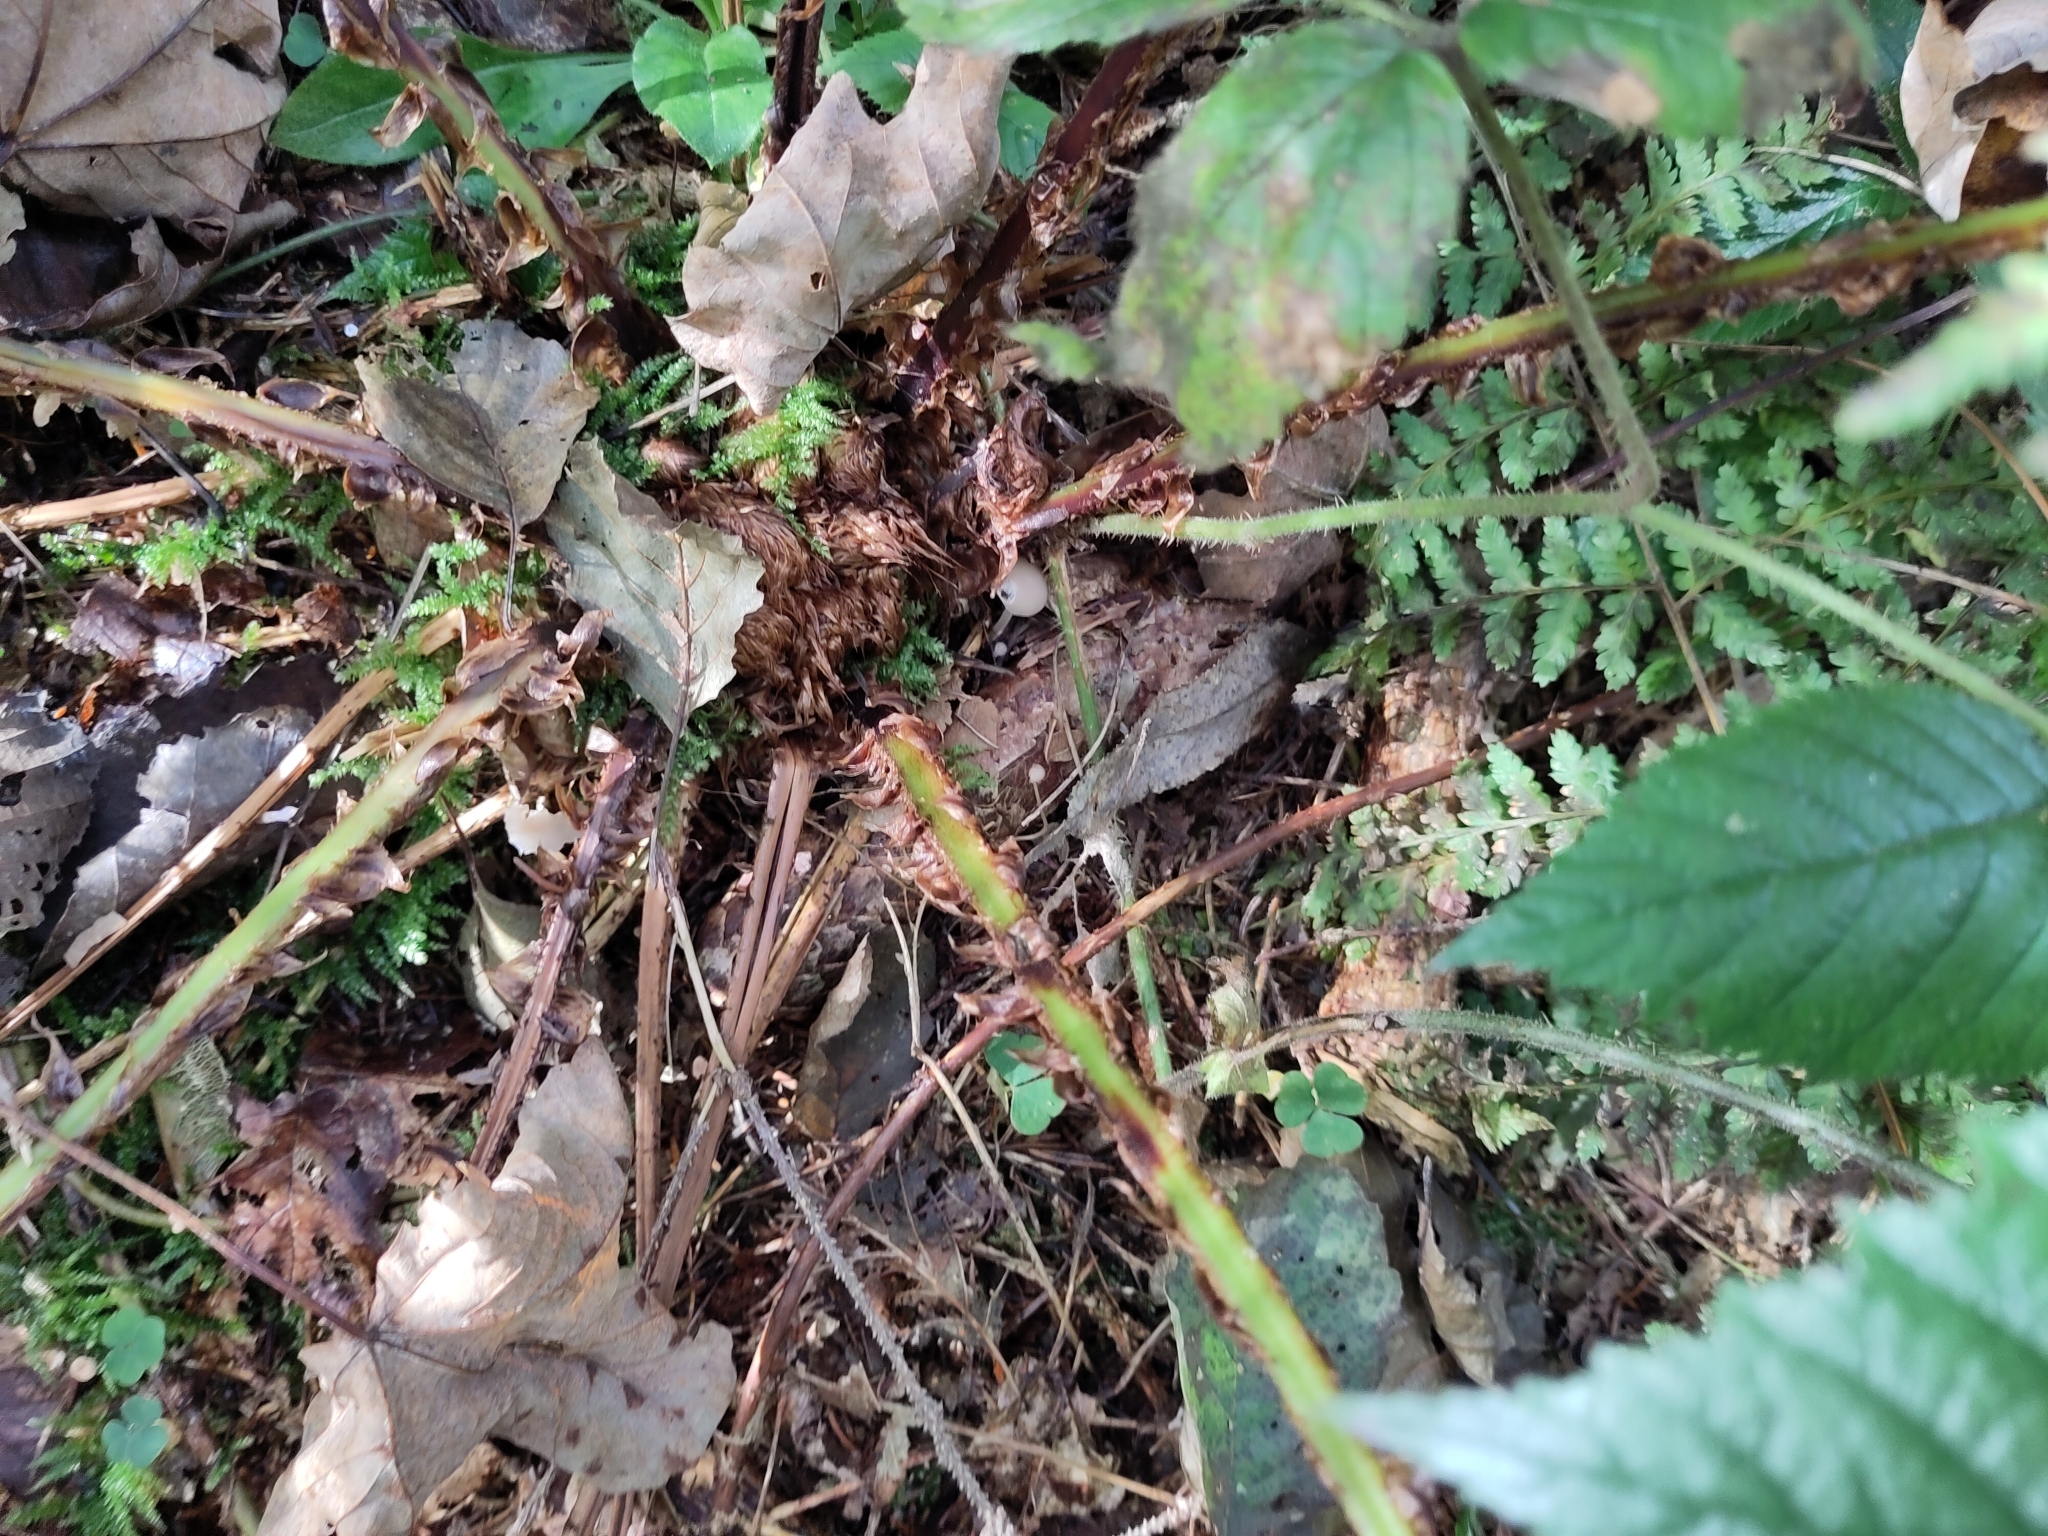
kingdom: Plantae
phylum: Tracheophyta
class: Polypodiopsida
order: Polypodiales
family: Dryopteridaceae
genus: Dryopteris
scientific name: Dryopteris dilatata
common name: Broad buckler-fern
